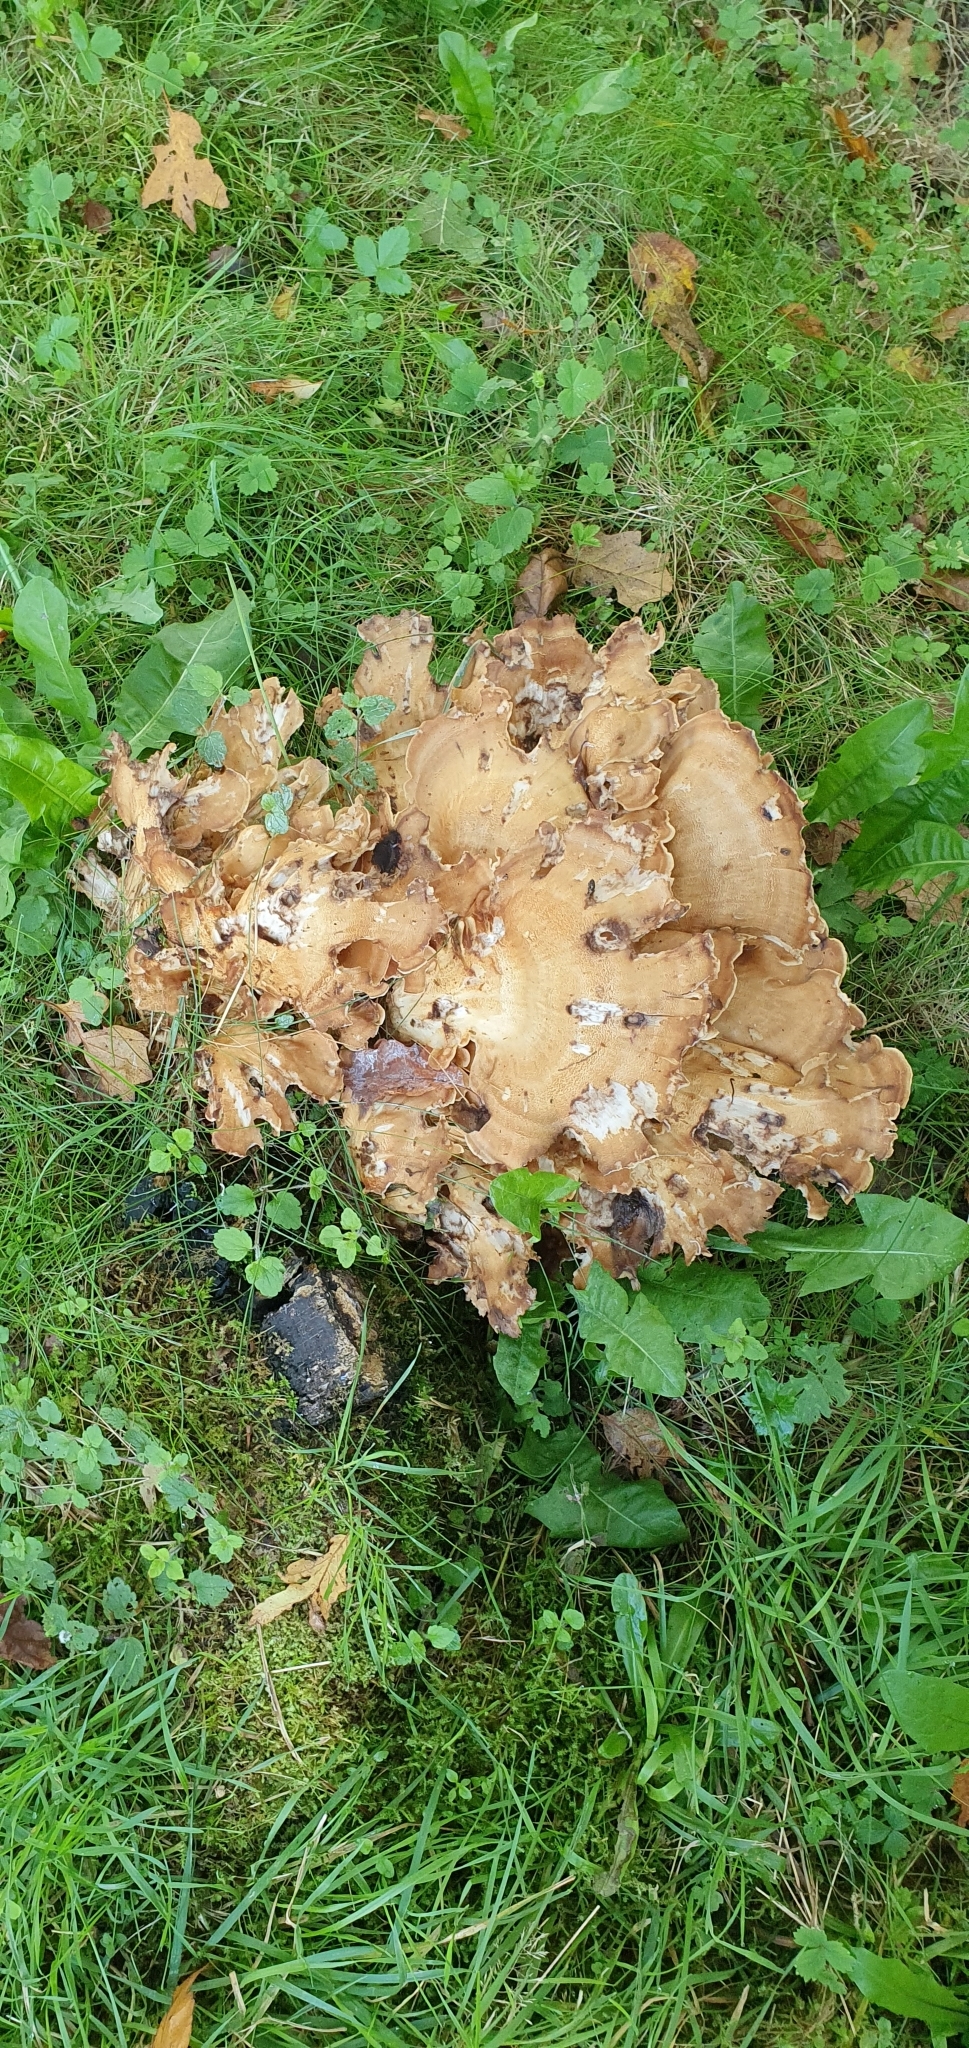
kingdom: Fungi
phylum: Basidiomycota
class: Agaricomycetes
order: Polyporales
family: Meripilaceae
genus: Meripilus
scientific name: Meripilus giganteus
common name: Giant polypore
